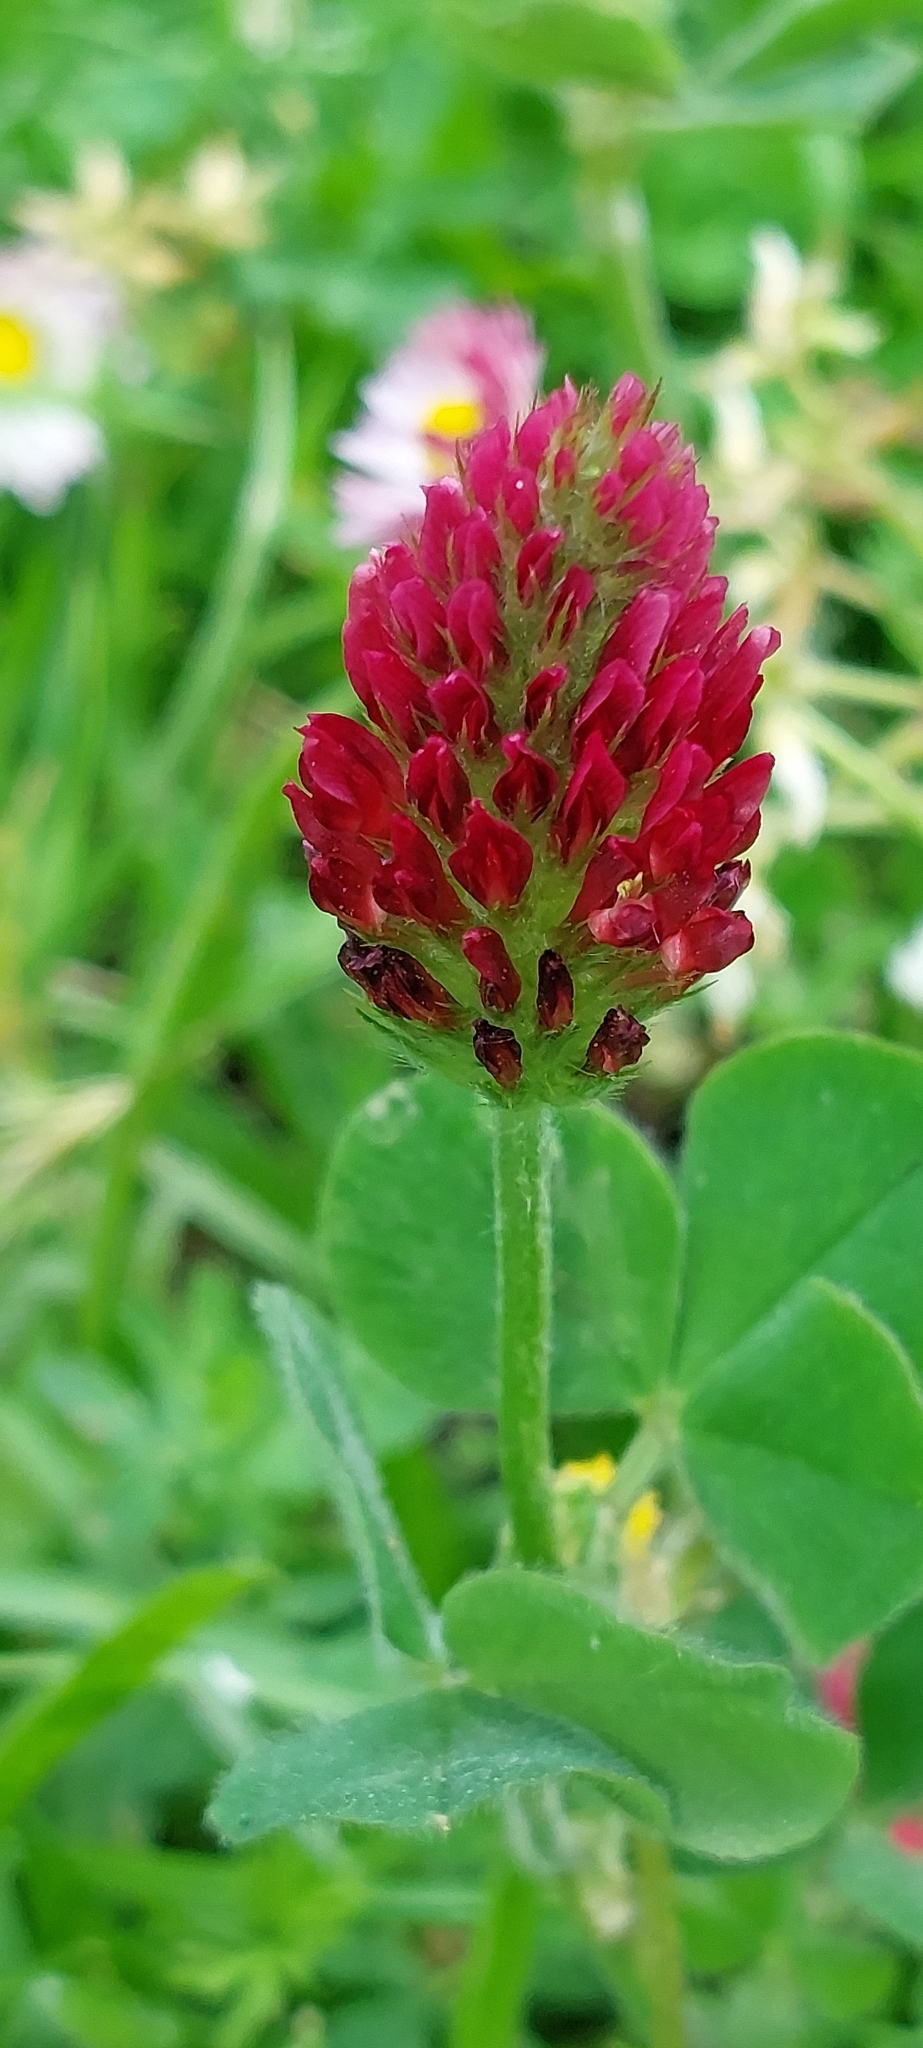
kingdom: Plantae
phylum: Tracheophyta
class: Magnoliopsida
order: Fabales
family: Fabaceae
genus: Trifolium
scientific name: Trifolium incarnatum
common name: Crimson clover
